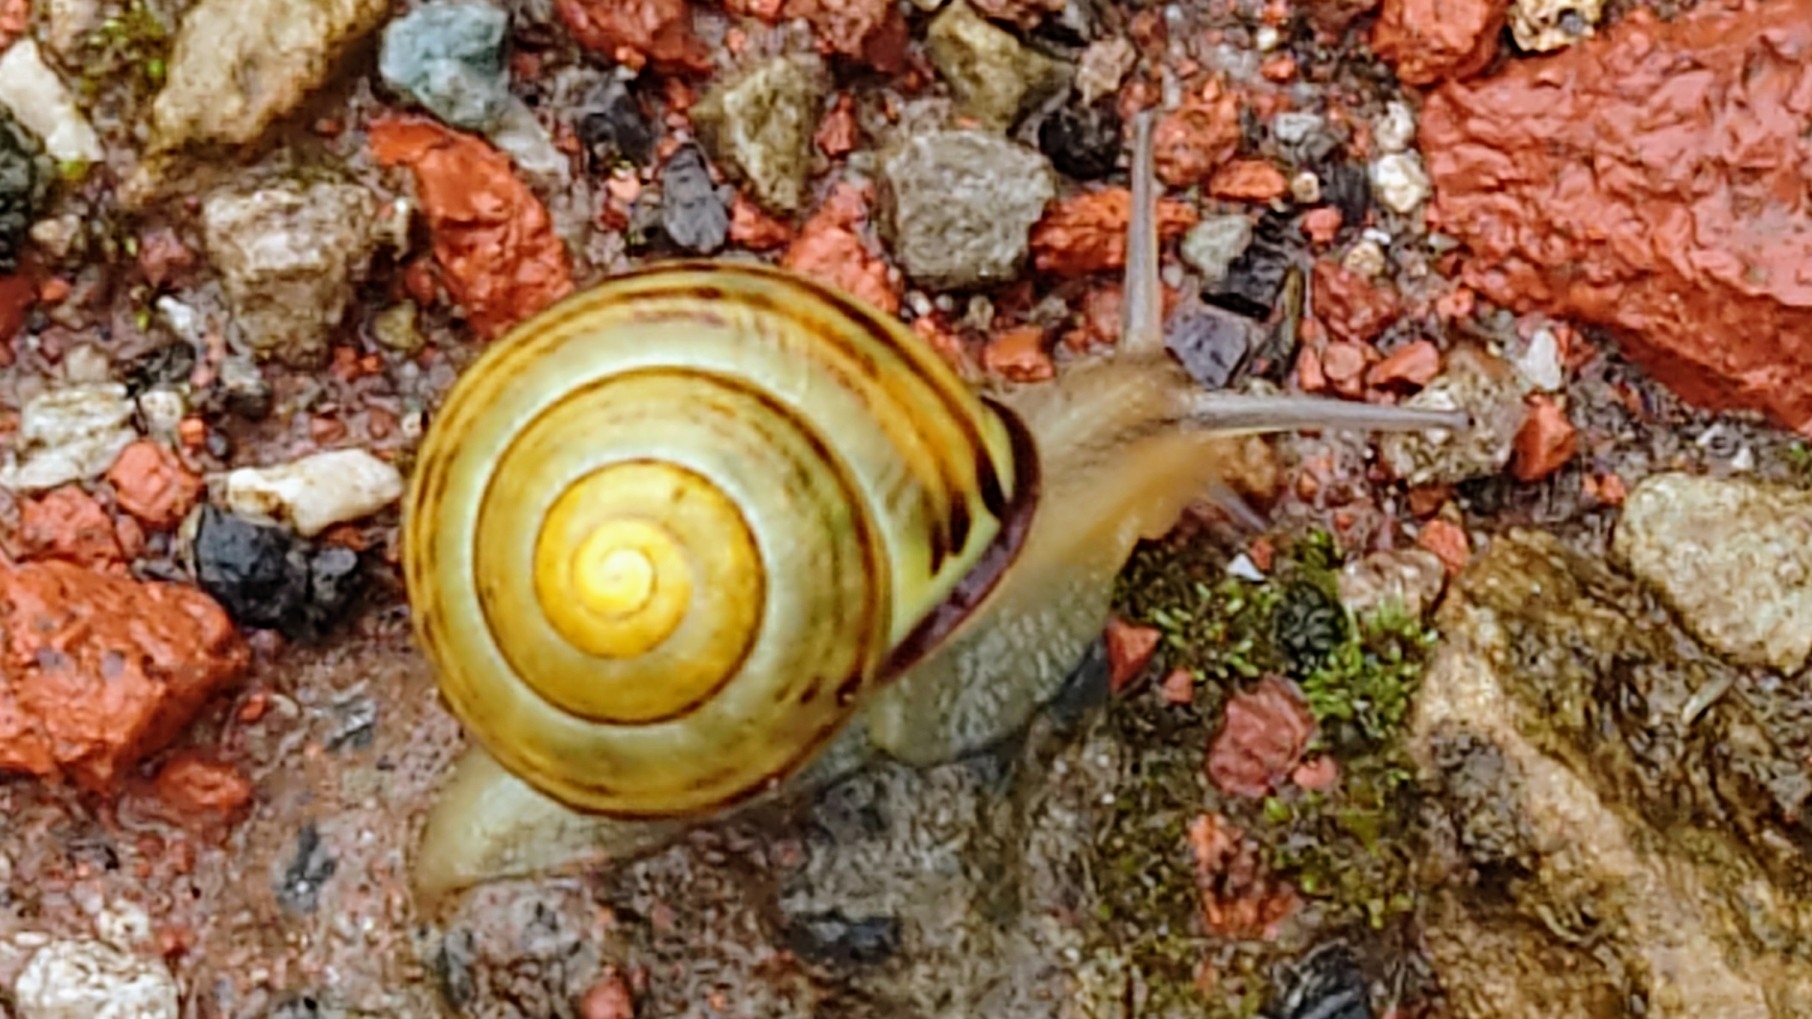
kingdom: Animalia
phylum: Mollusca
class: Gastropoda
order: Stylommatophora
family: Helicidae
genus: Cepaea
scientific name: Cepaea nemoralis
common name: Grovesnail
